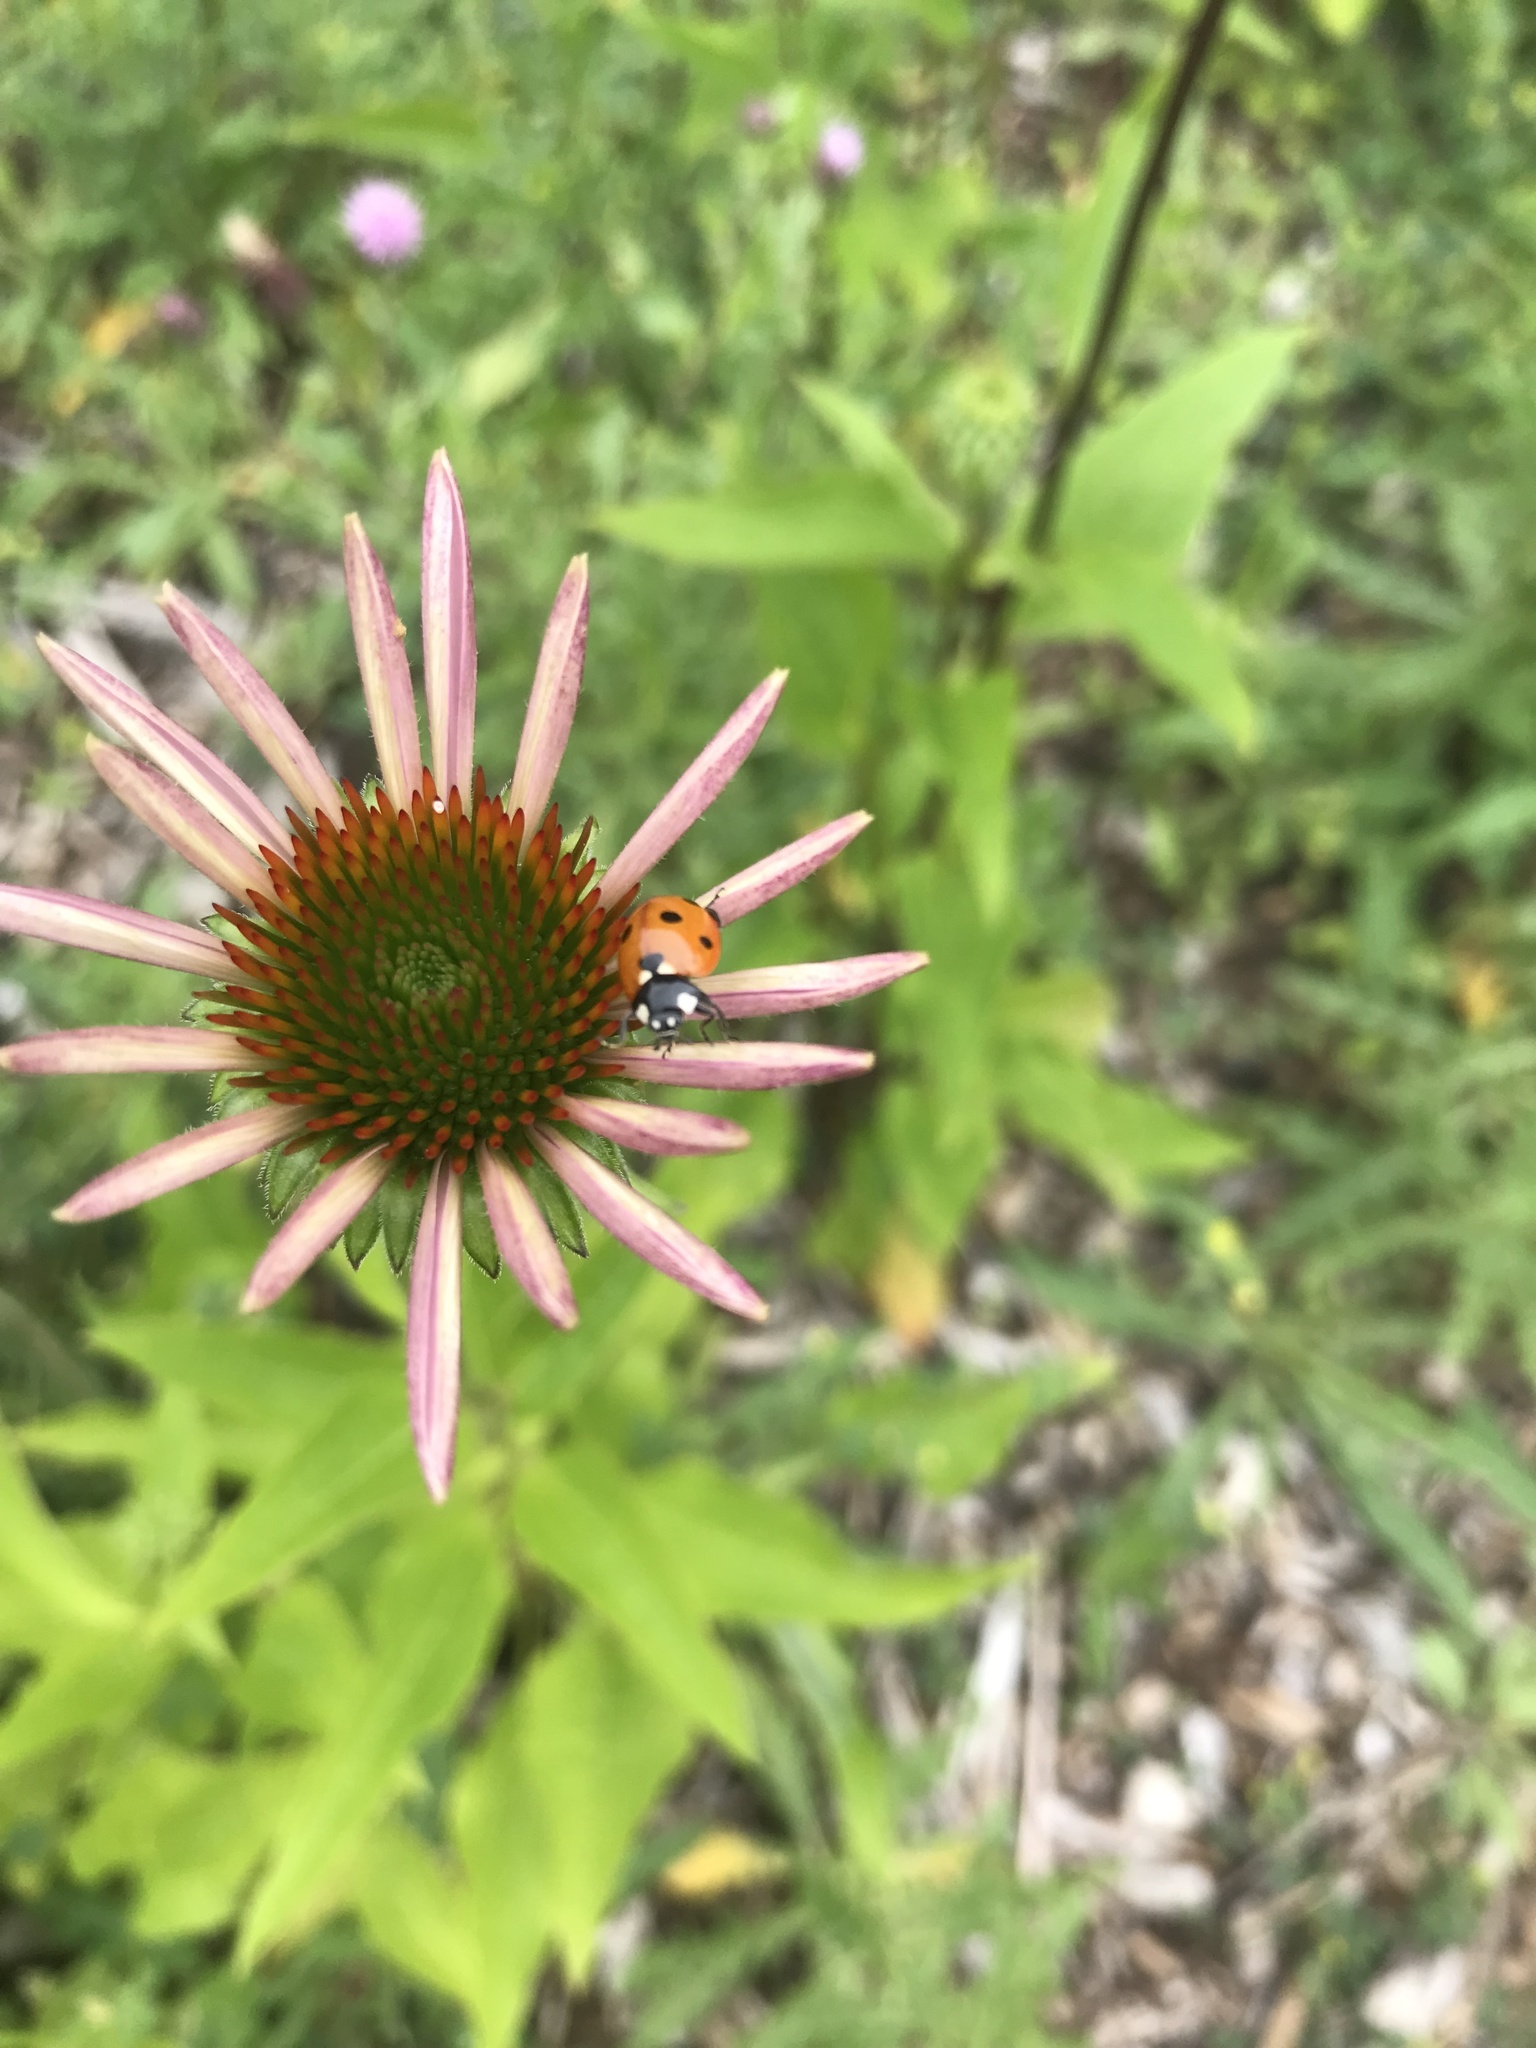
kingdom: Animalia
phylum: Arthropoda
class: Insecta
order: Coleoptera
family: Coccinellidae
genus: Coccinella
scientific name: Coccinella septempunctata
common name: Sevenspotted lady beetle
